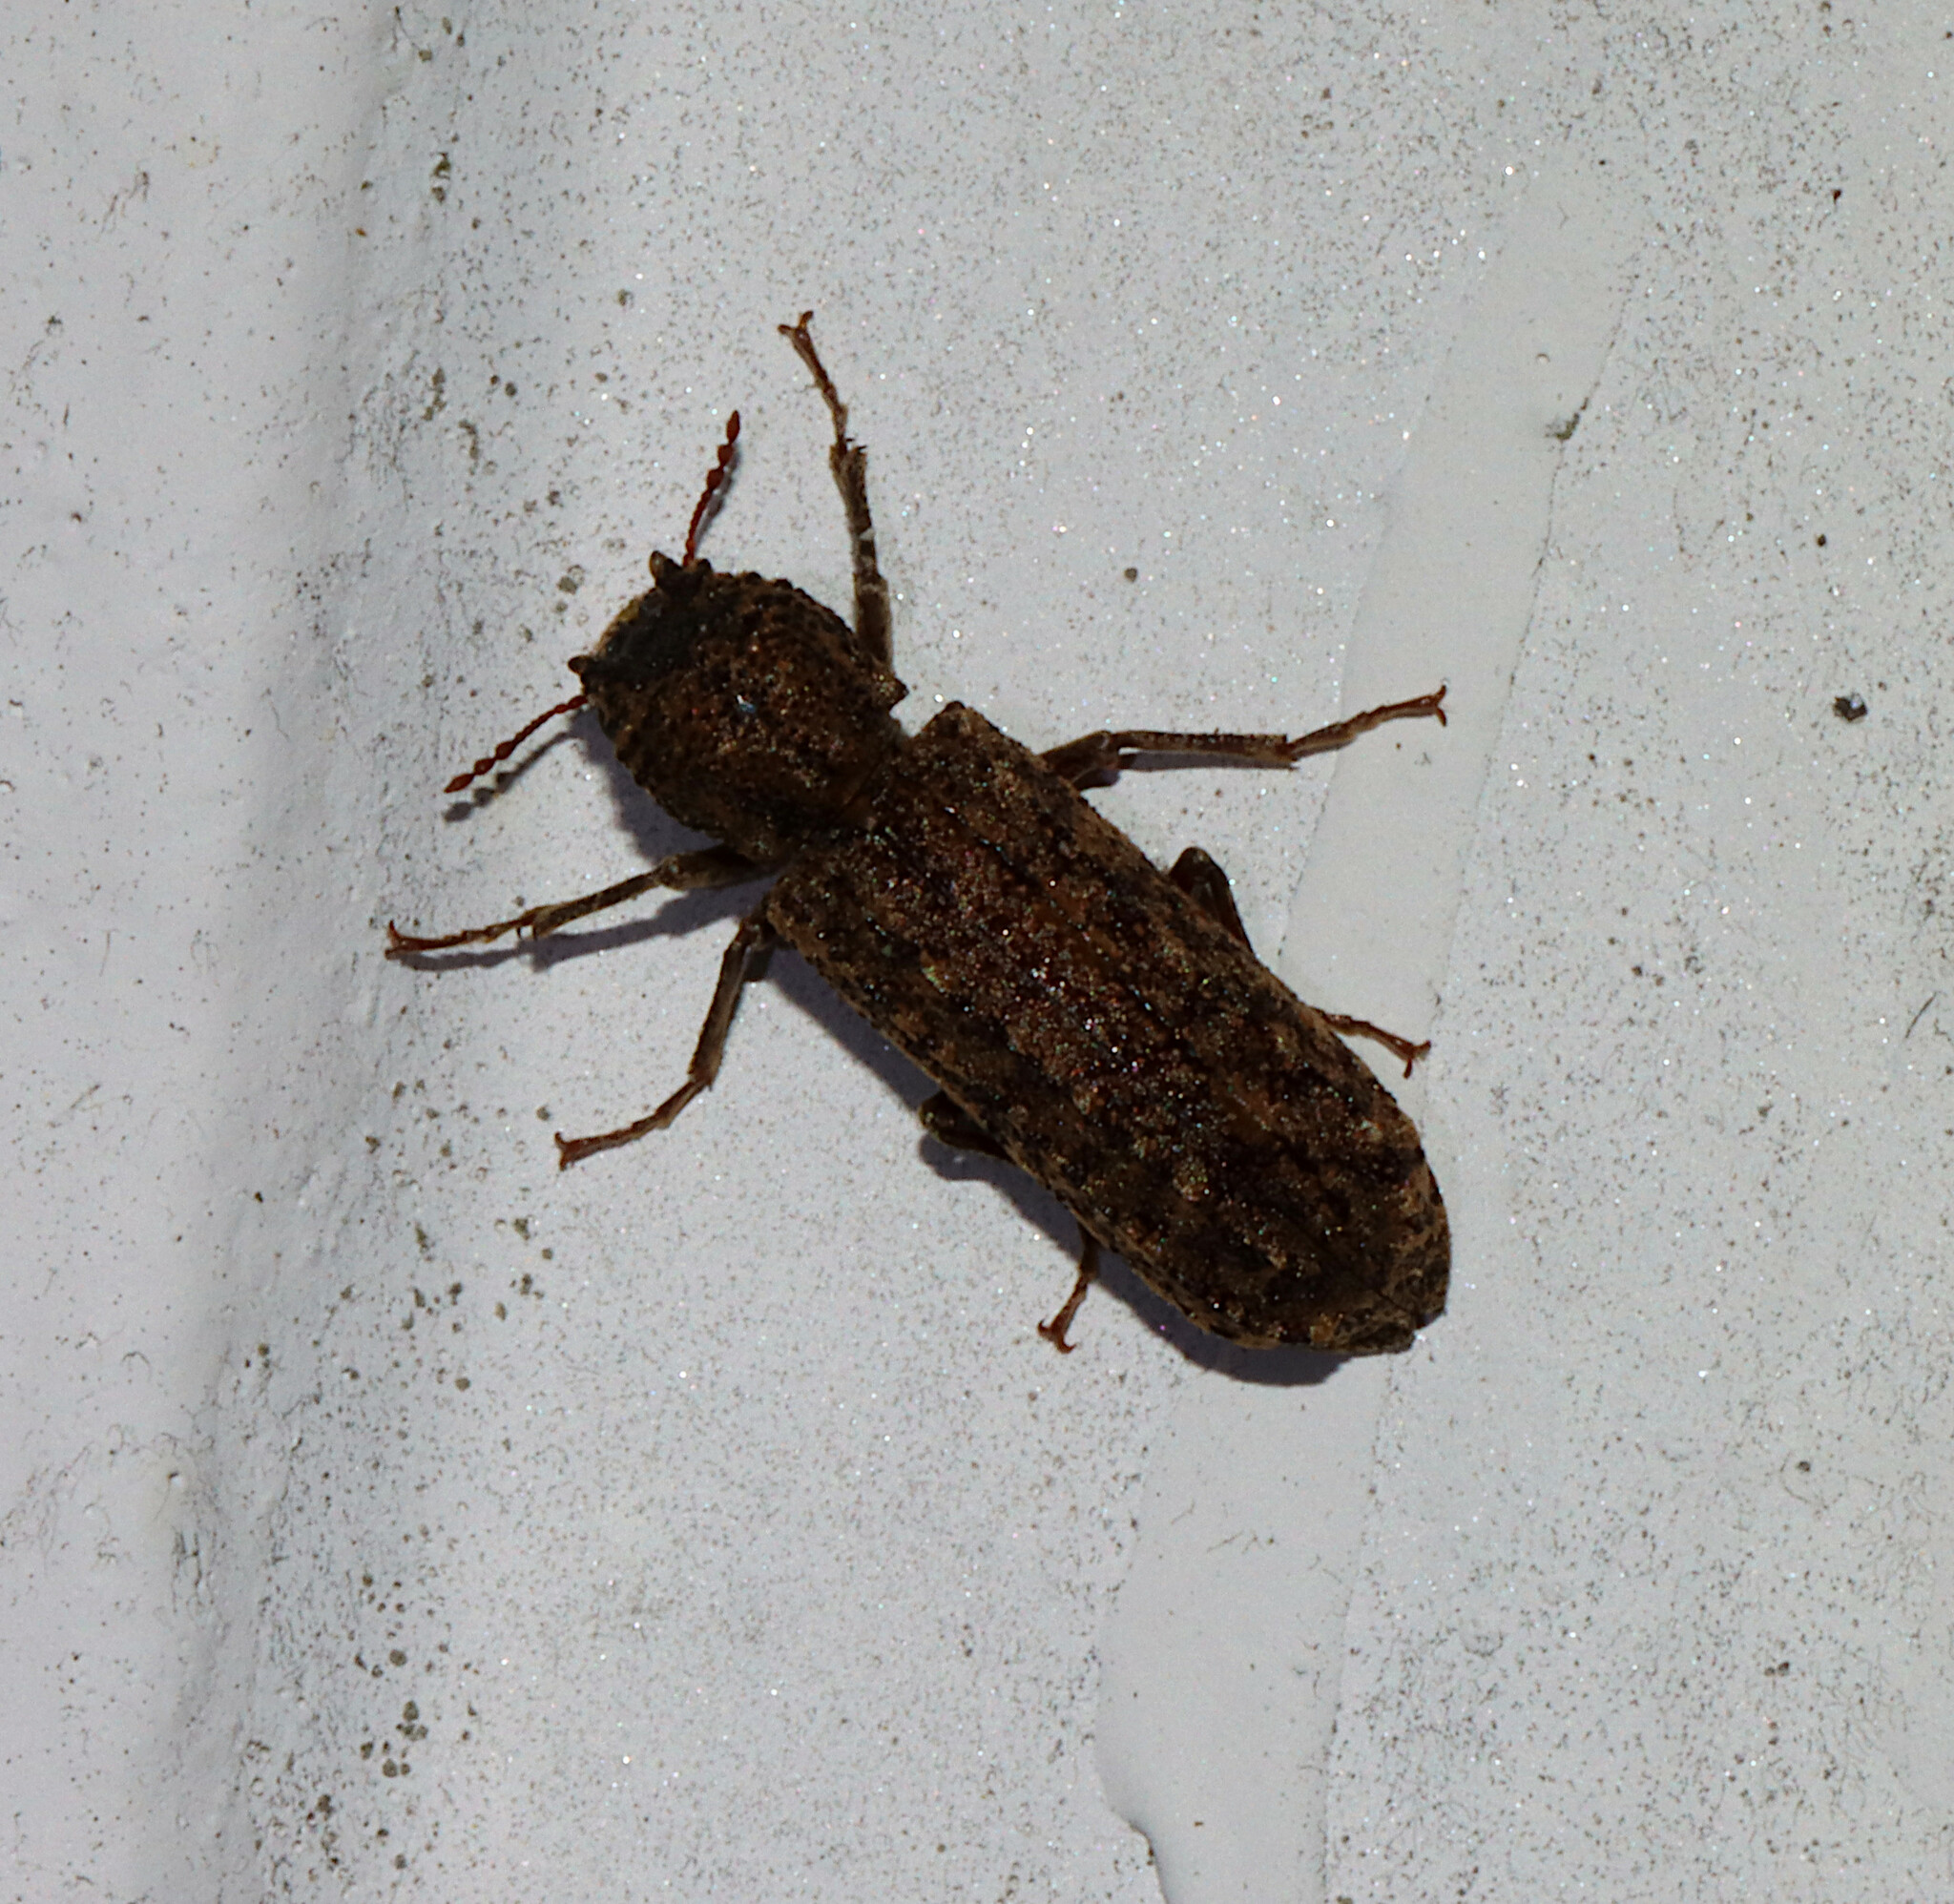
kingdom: Animalia
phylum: Arthropoda
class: Insecta
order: Coleoptera
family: Bostrichidae
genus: Lichenophanes
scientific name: Lichenophanes bicornis
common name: Two-horned powder-post beetle
